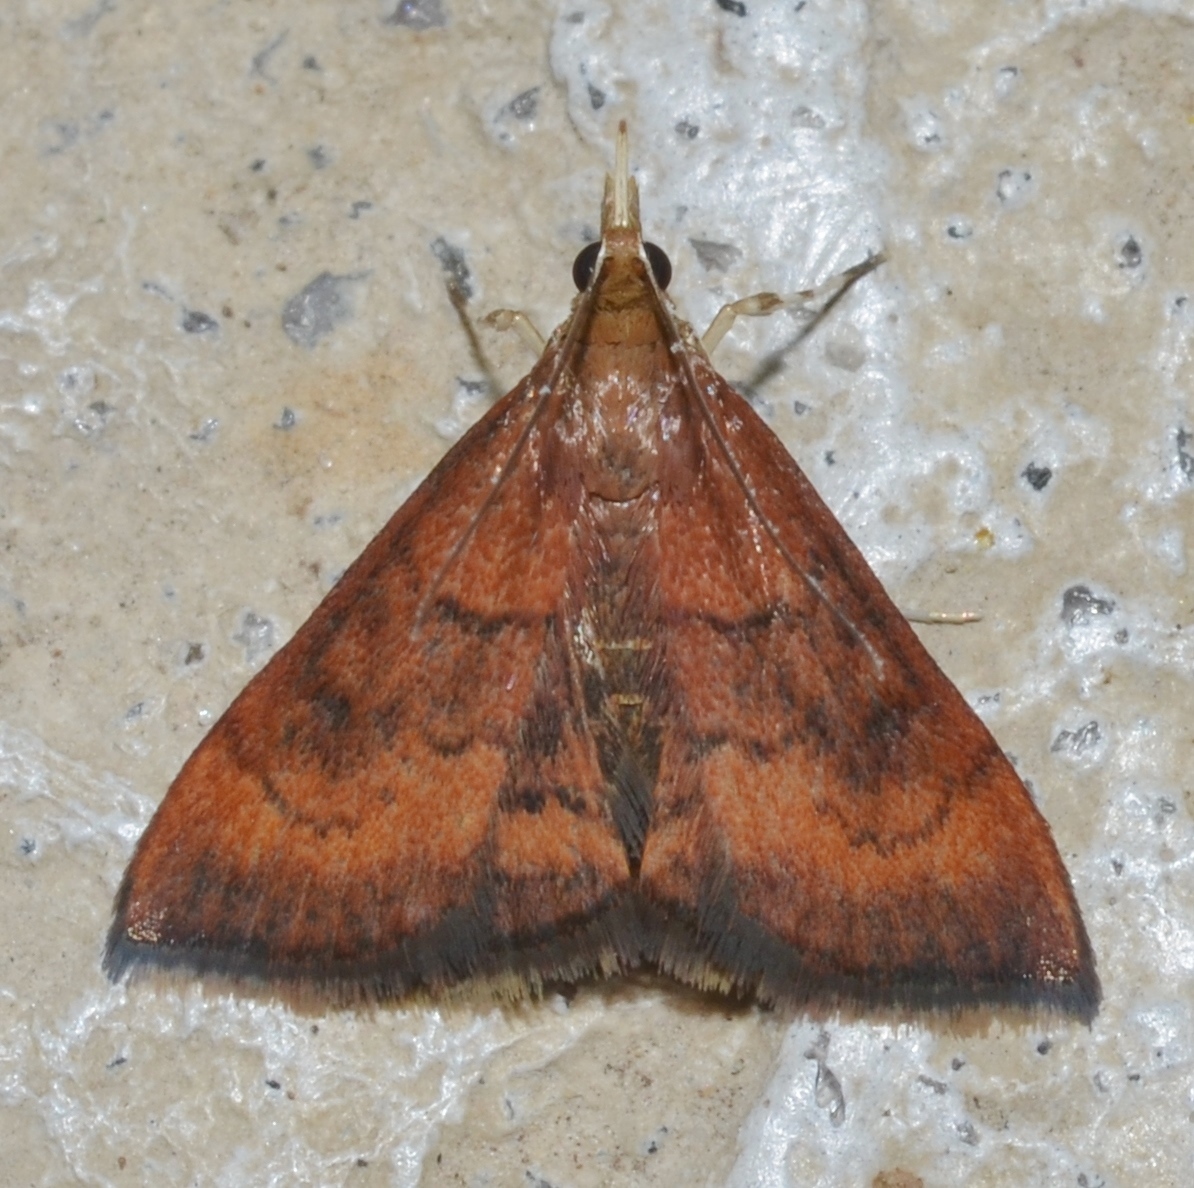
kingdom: Animalia
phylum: Arthropoda
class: Insecta
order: Lepidoptera
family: Crambidae
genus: Pyrausta
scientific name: Pyrausta rubricalis
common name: Variable reddish pyrausta
